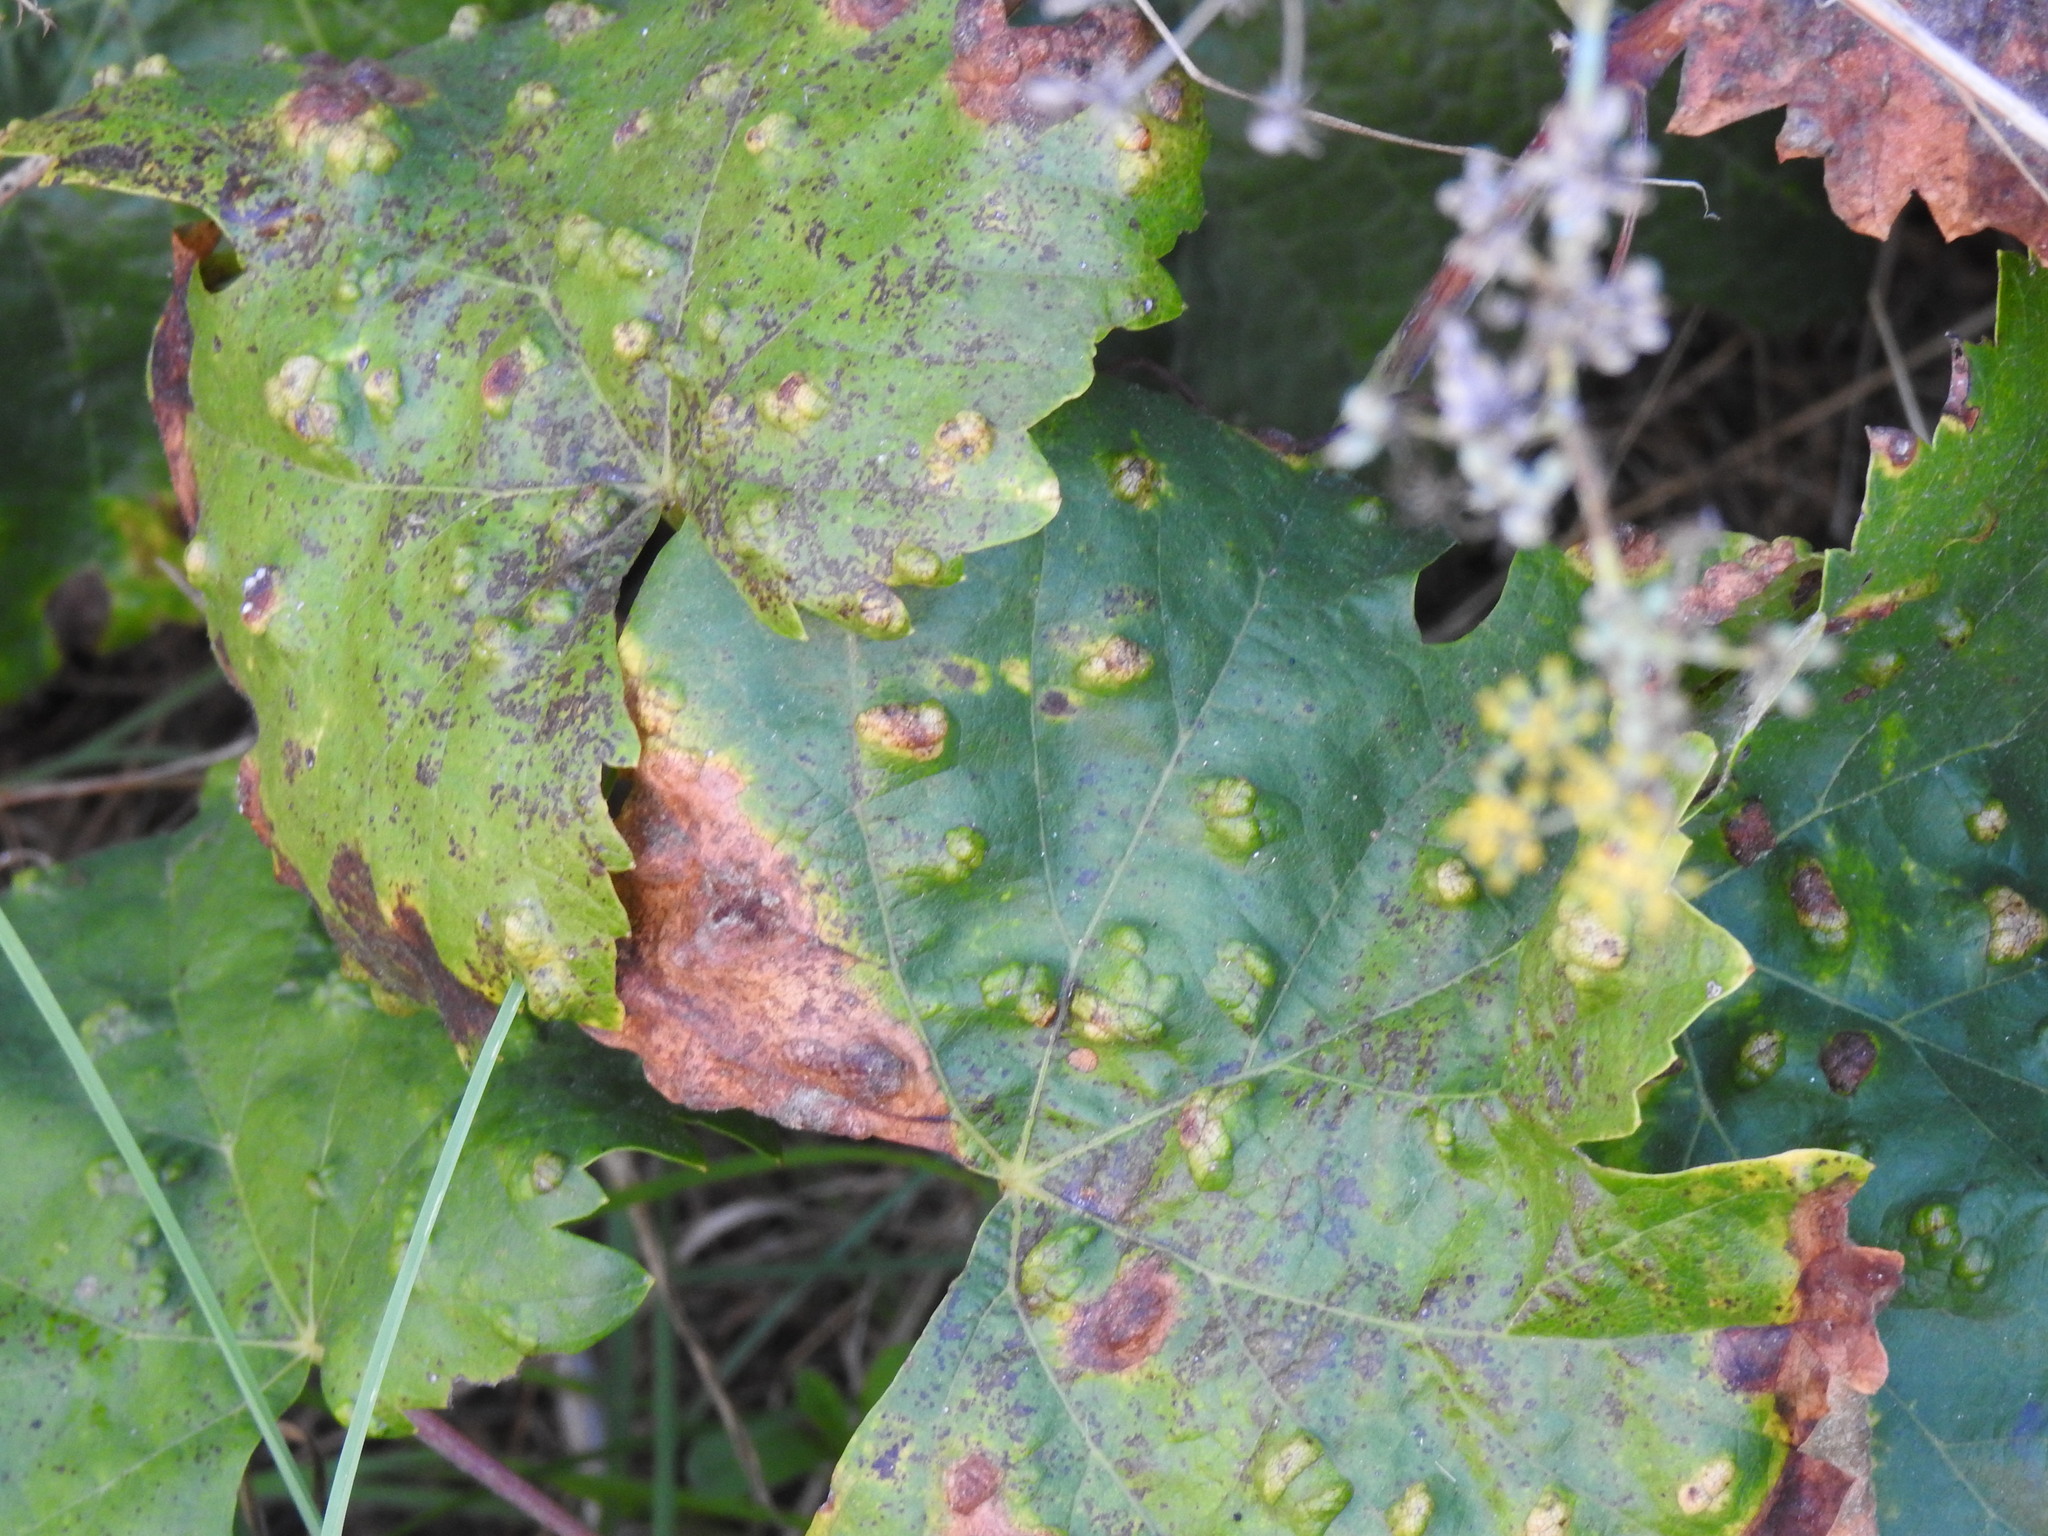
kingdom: Animalia
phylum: Arthropoda
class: Arachnida
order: Trombidiformes
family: Eriophyidae
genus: Colomerus
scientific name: Colomerus vitis
